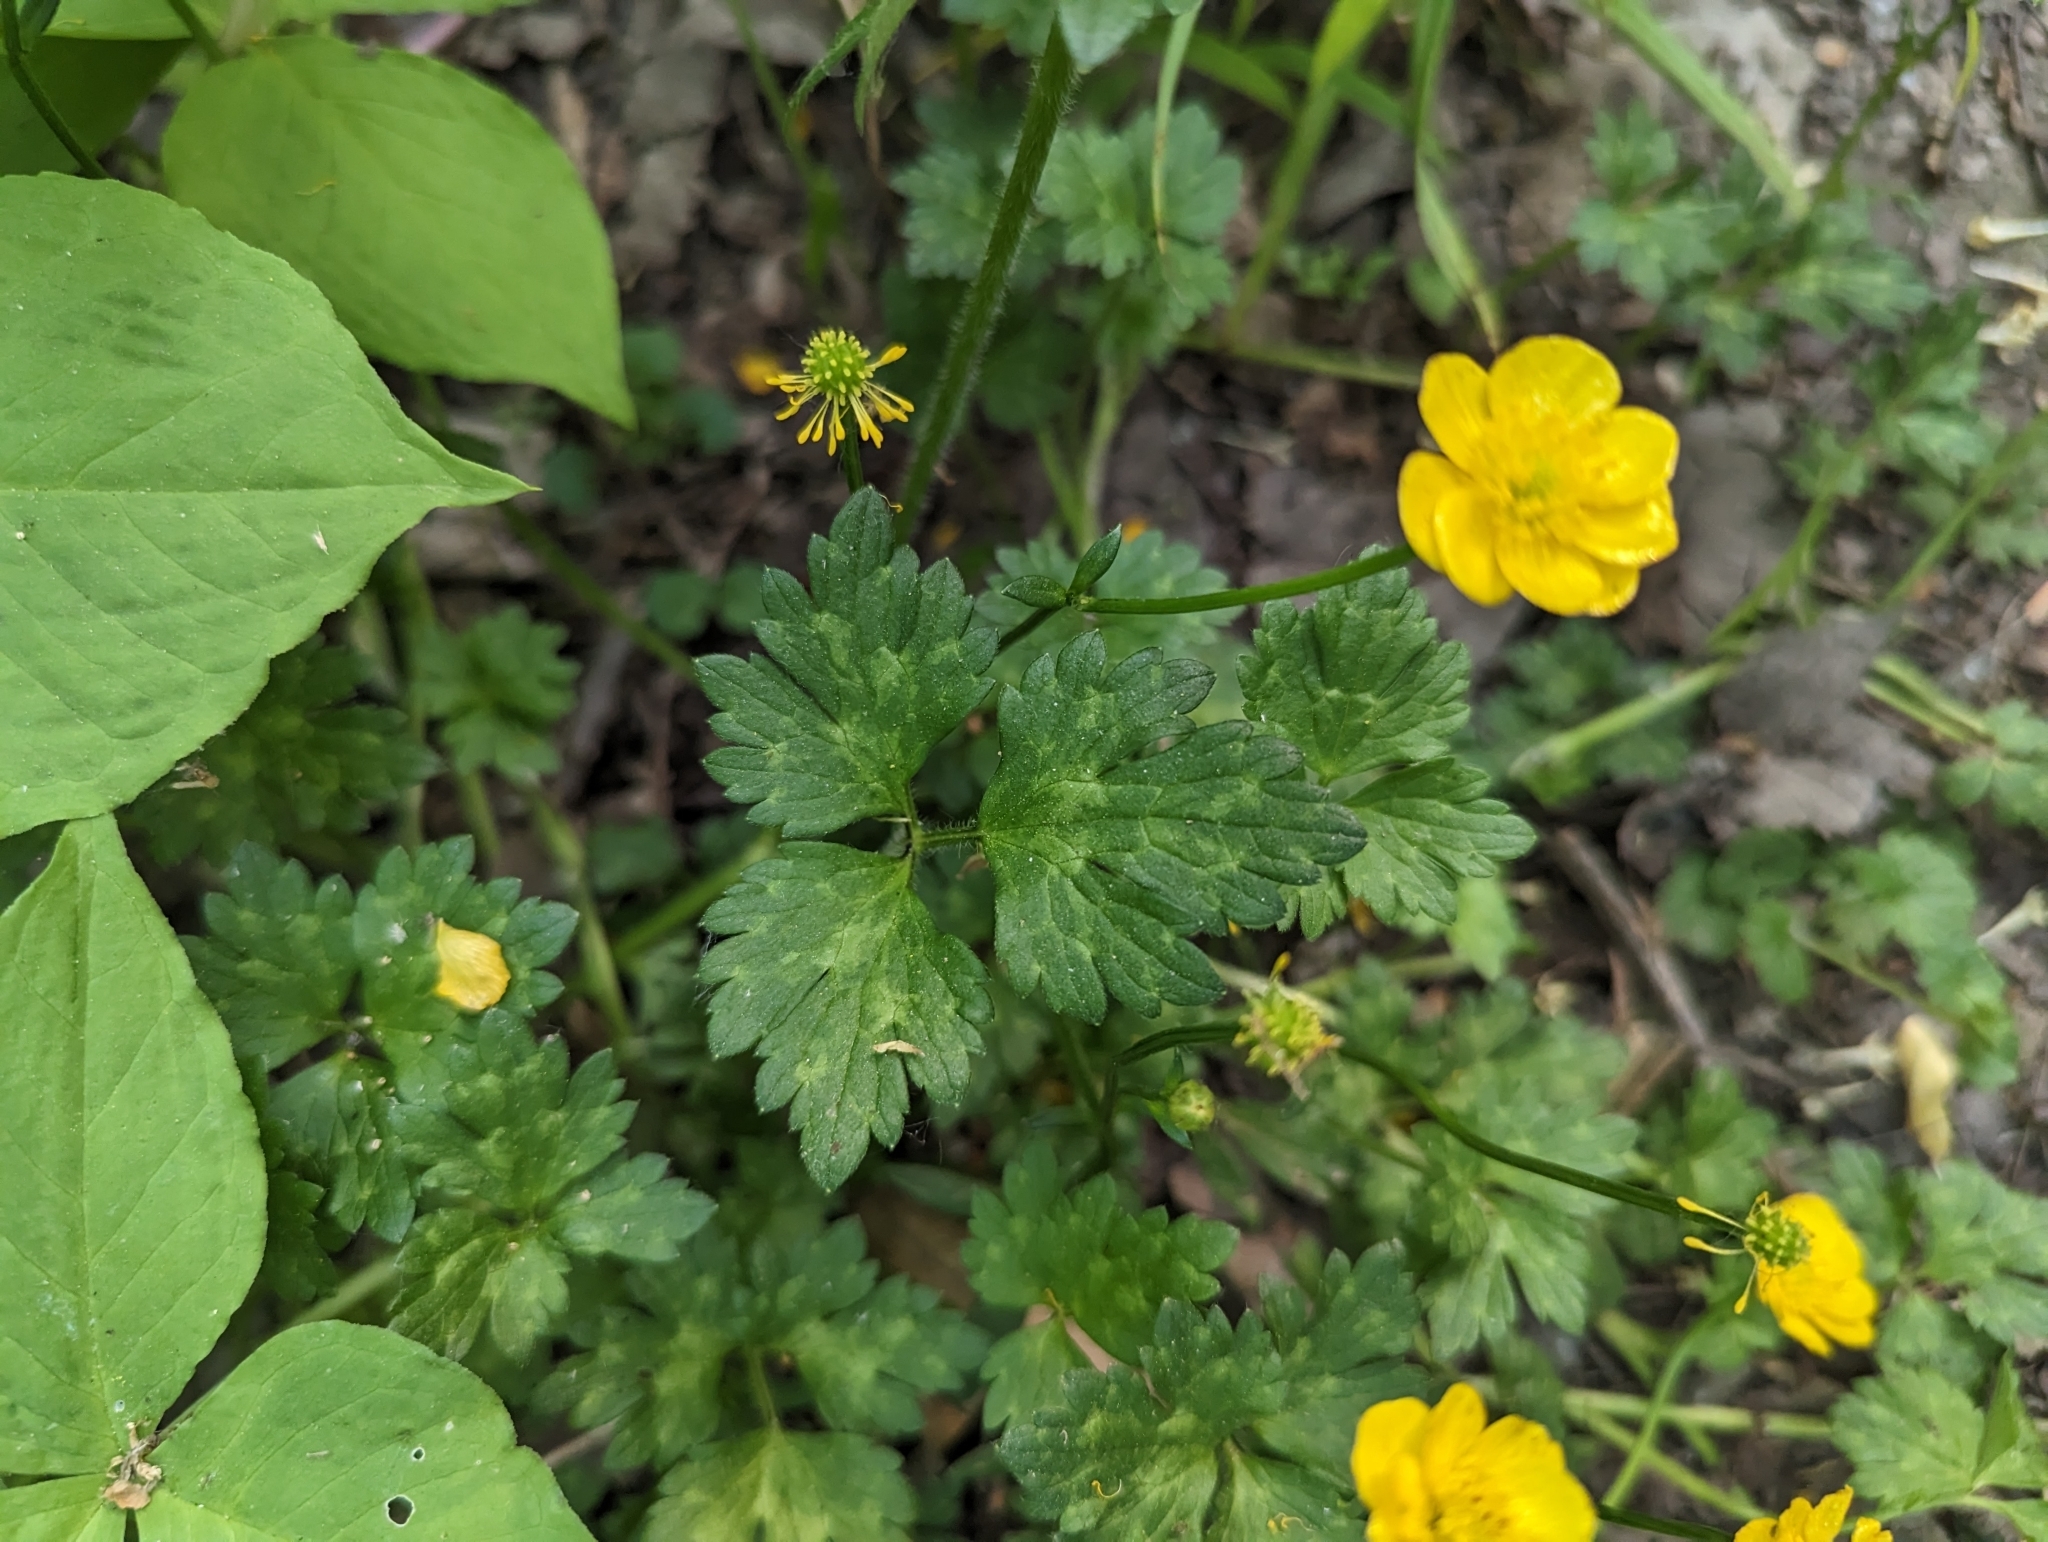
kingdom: Plantae
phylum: Tracheophyta
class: Magnoliopsida
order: Ranunculales
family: Ranunculaceae
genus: Ranunculus
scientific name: Ranunculus repens
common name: Creeping buttercup
